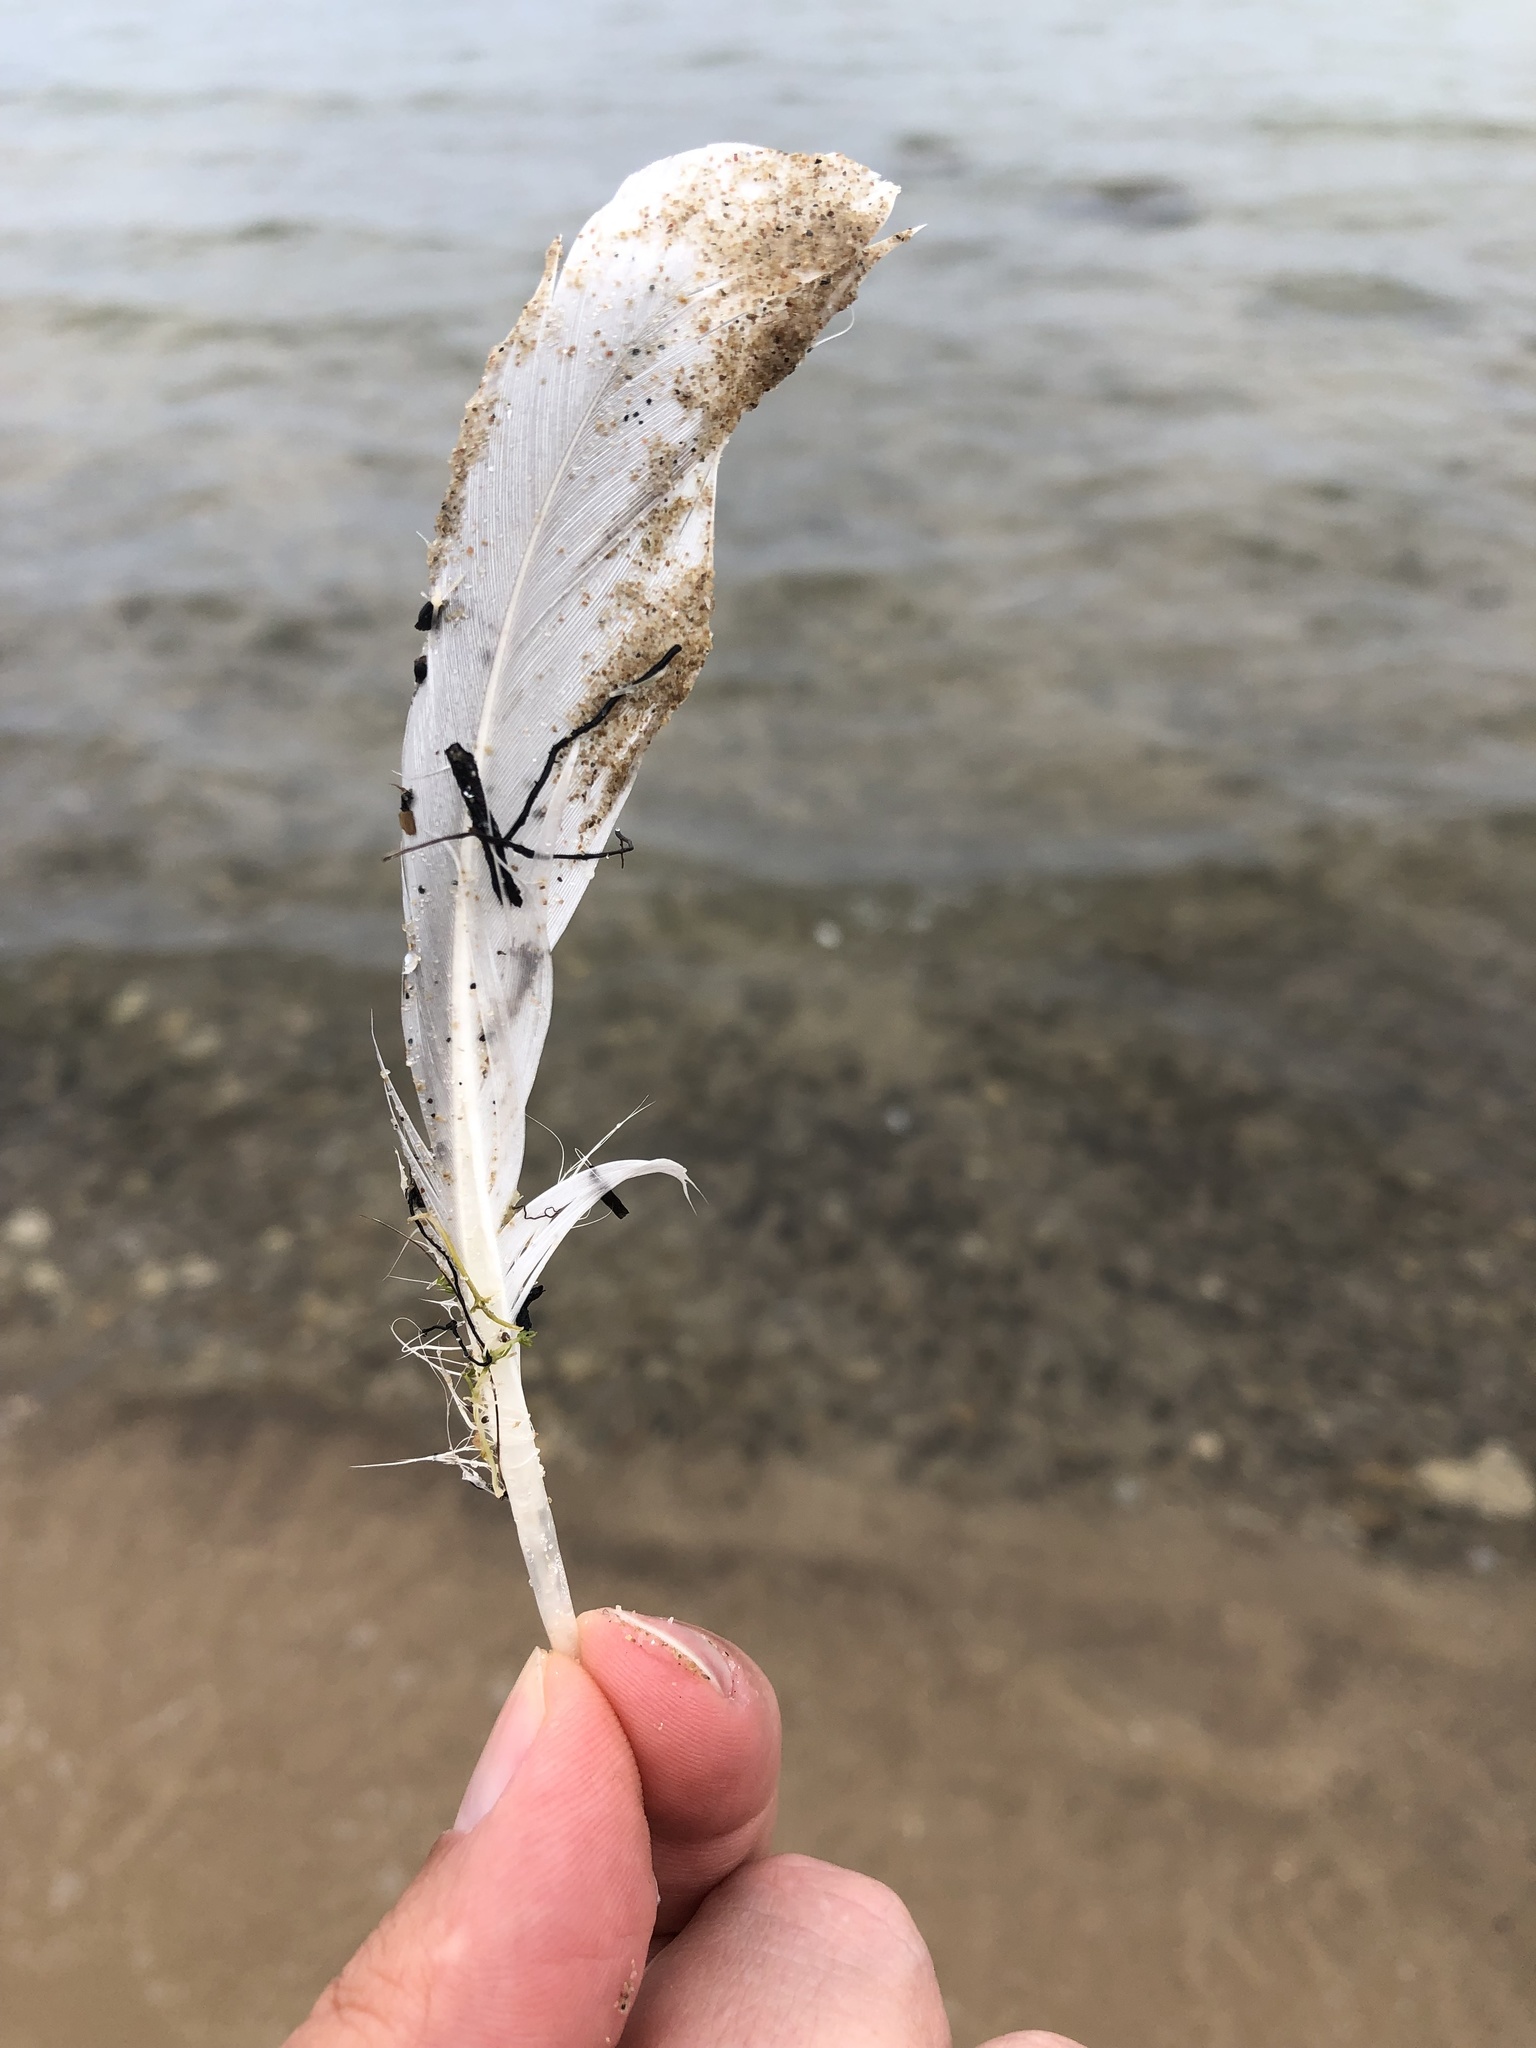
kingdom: Animalia
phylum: Chordata
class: Aves
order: Charadriiformes
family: Laridae
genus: Larus
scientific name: Larus delawarensis
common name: Ring-billed gull
